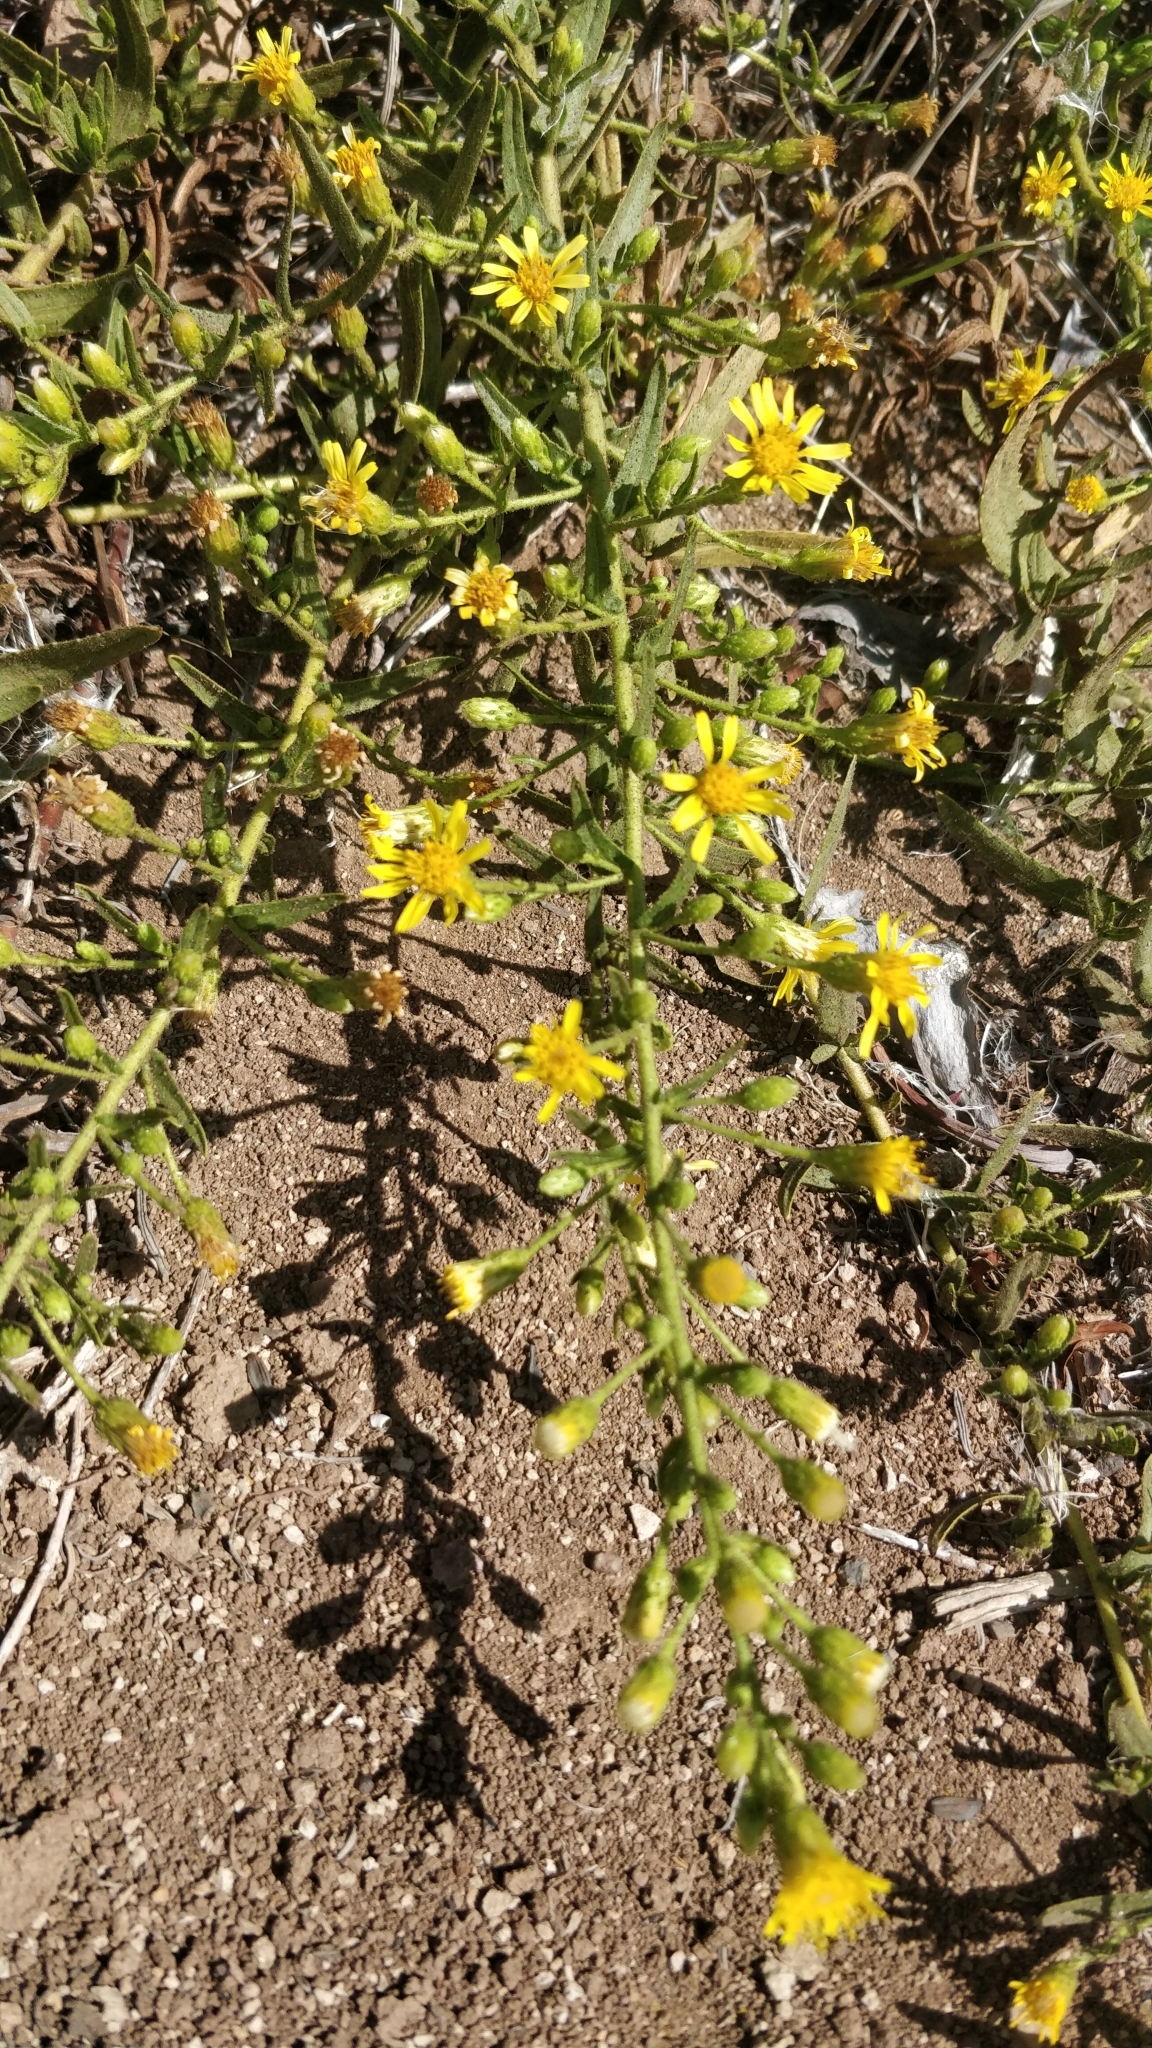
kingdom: Plantae
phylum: Tracheophyta
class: Magnoliopsida
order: Asterales
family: Asteraceae
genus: Dittrichia
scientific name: Dittrichia viscosa
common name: Woody fleabane
